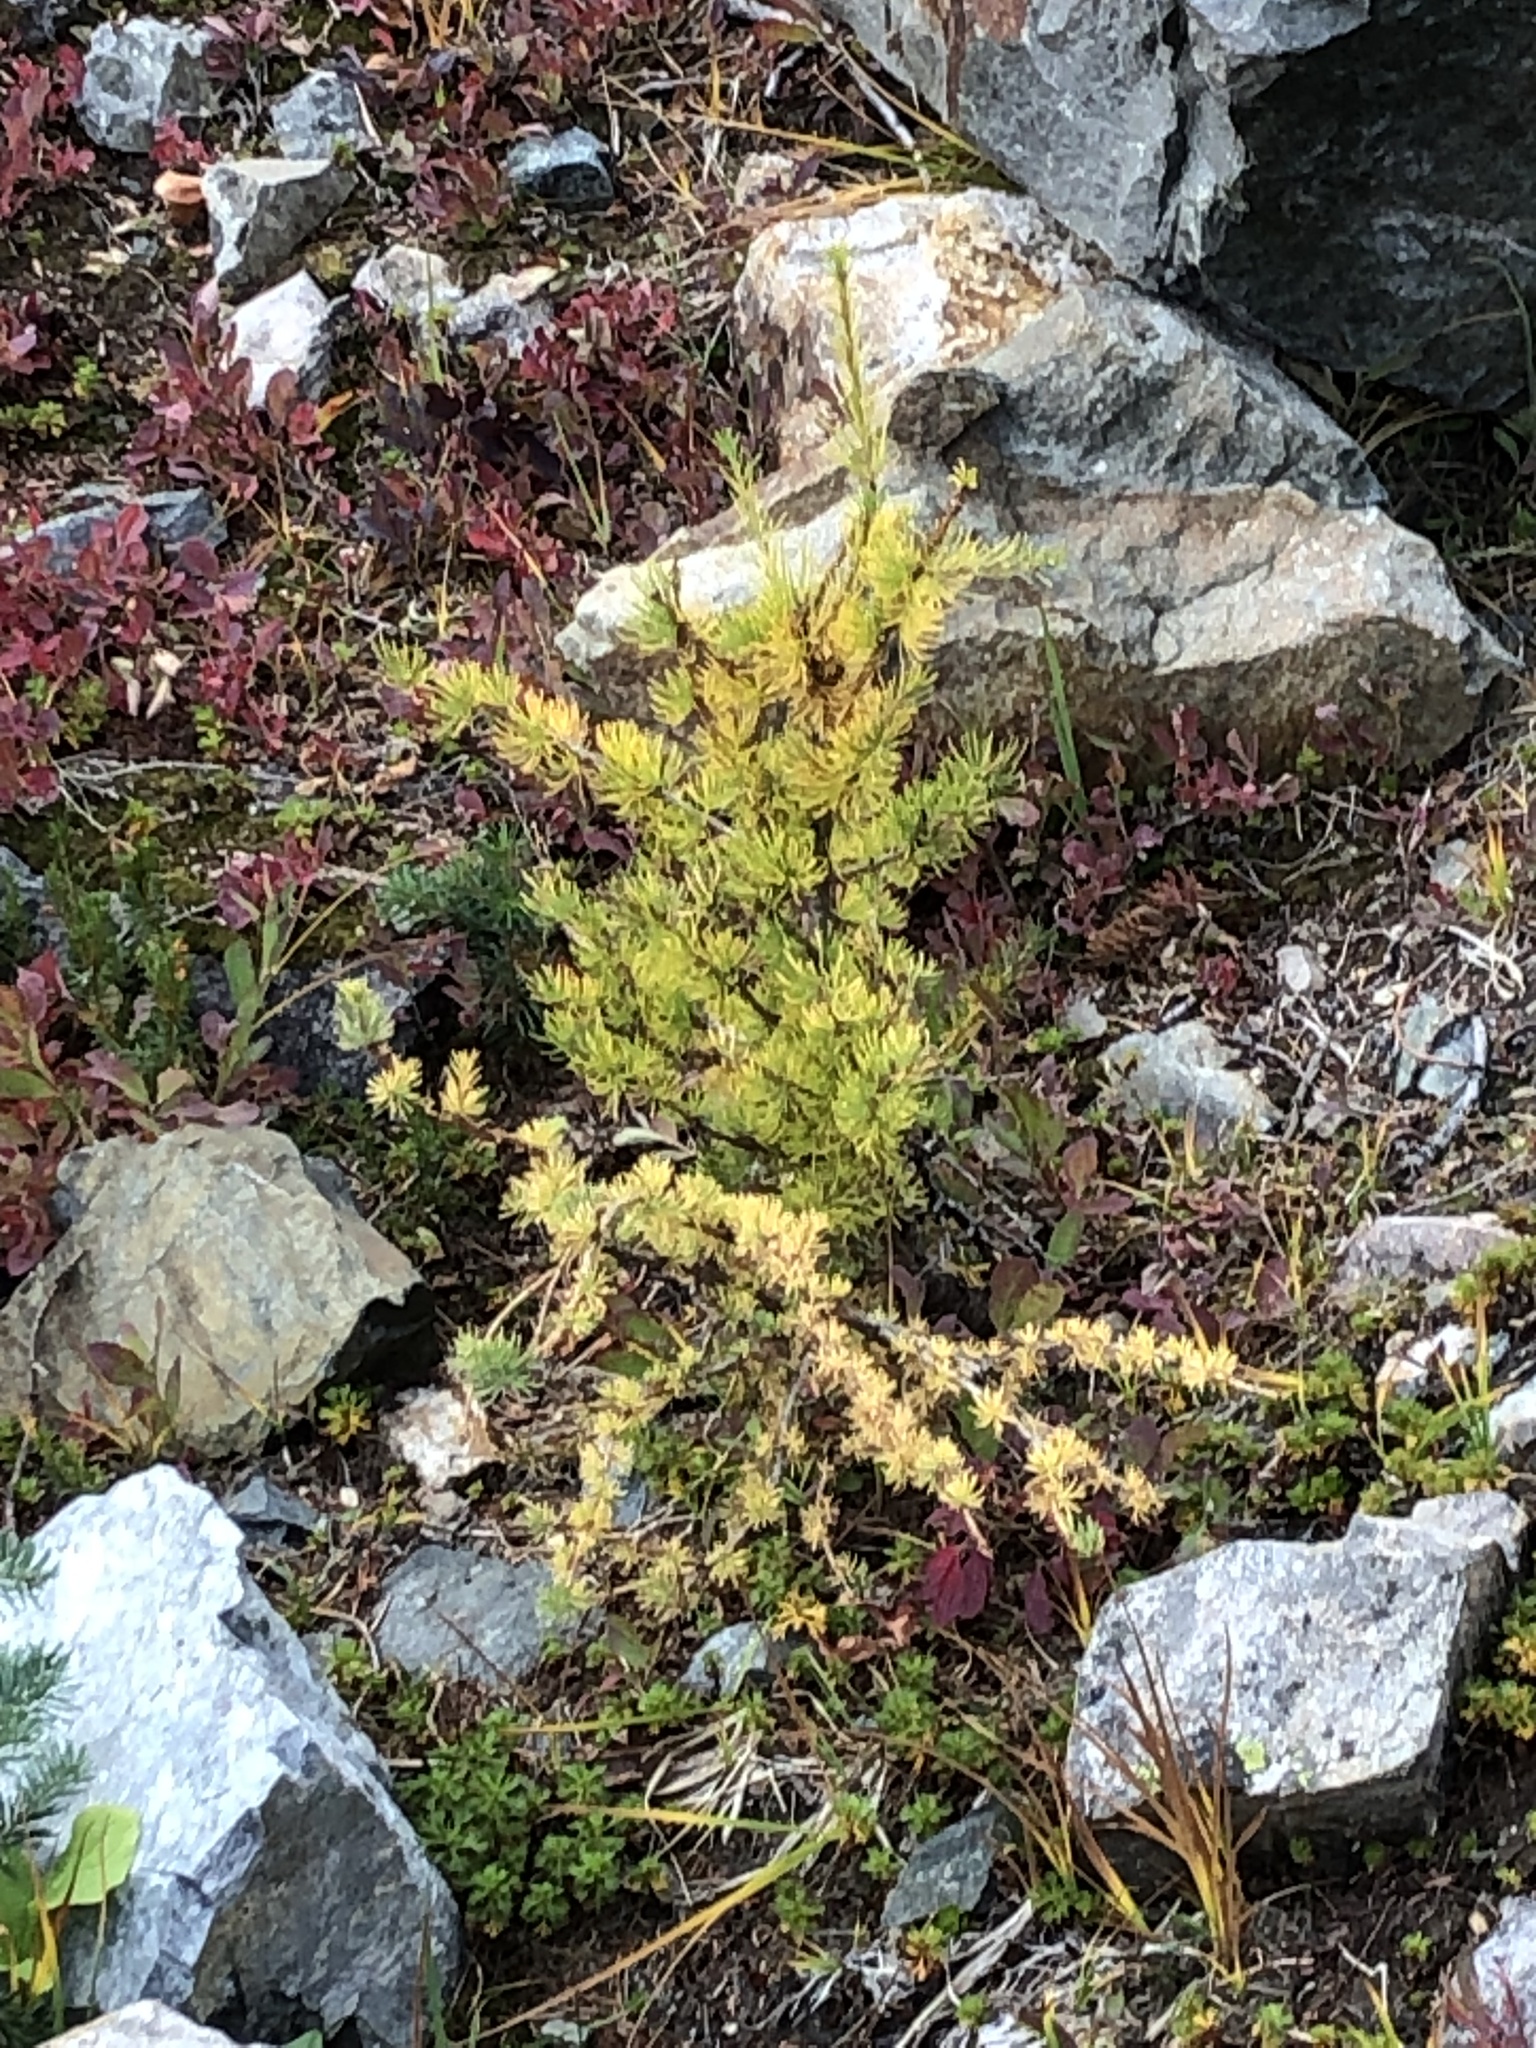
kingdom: Plantae
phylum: Tracheophyta
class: Pinopsida
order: Pinales
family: Pinaceae
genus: Larix
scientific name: Larix lyallii
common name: Alpine larch
